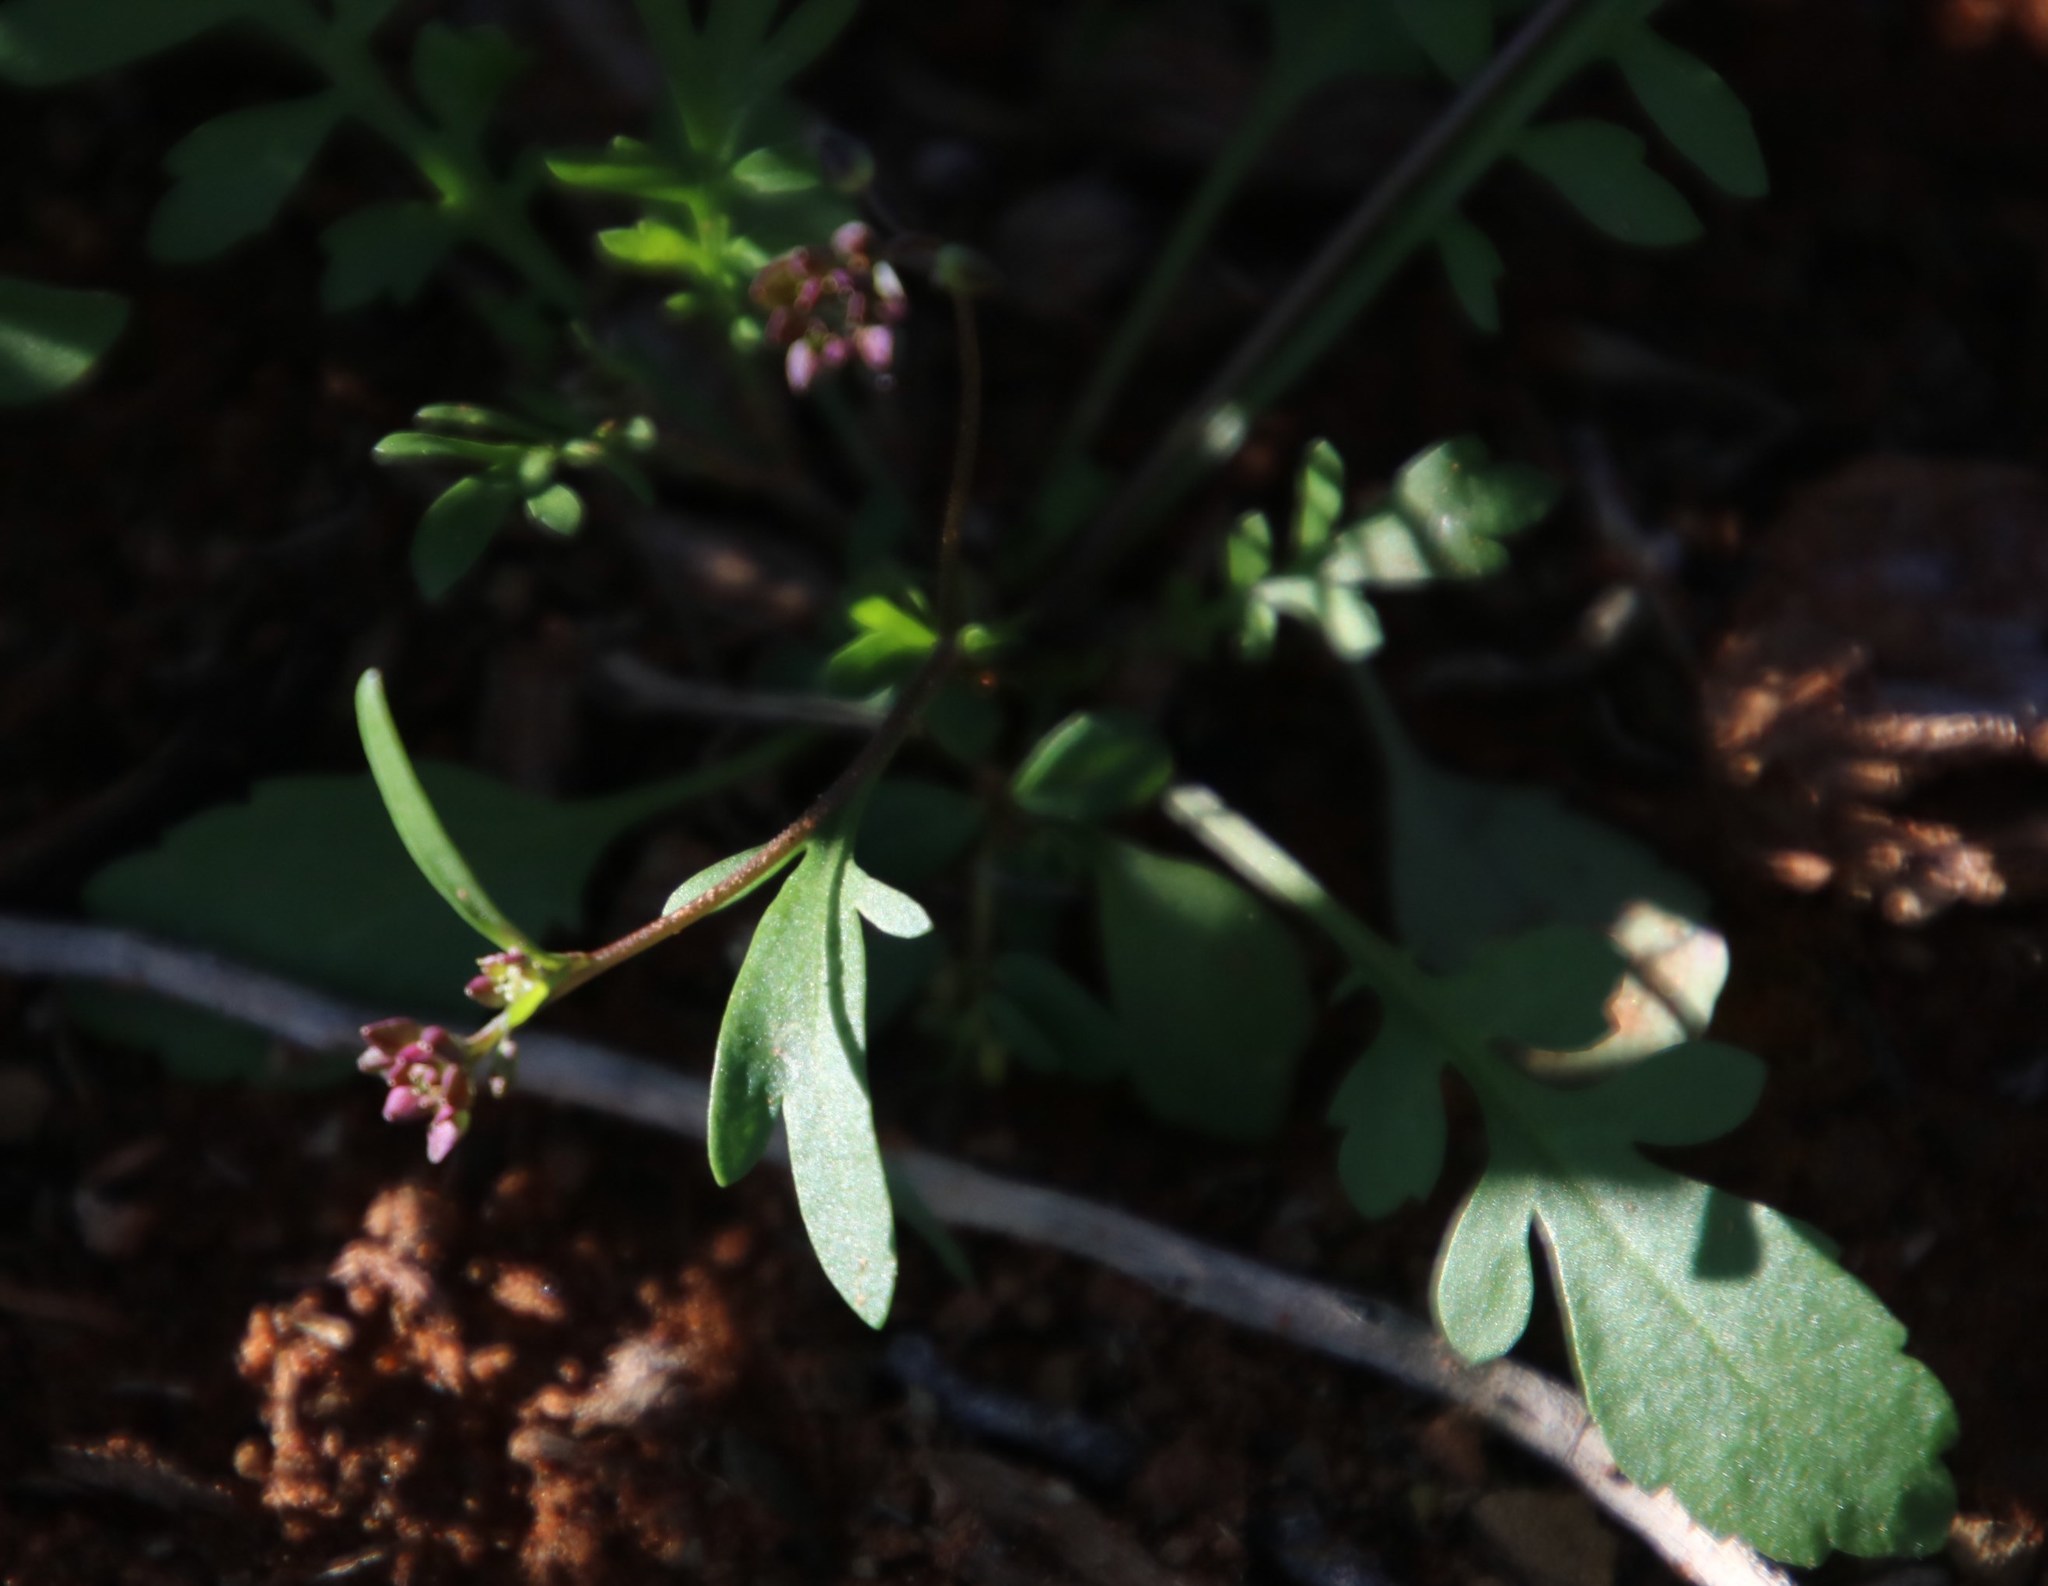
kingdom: Plantae
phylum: Tracheophyta
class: Magnoliopsida
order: Brassicales
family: Brassicaceae
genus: Lepidium
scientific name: Lepidium desertorum
